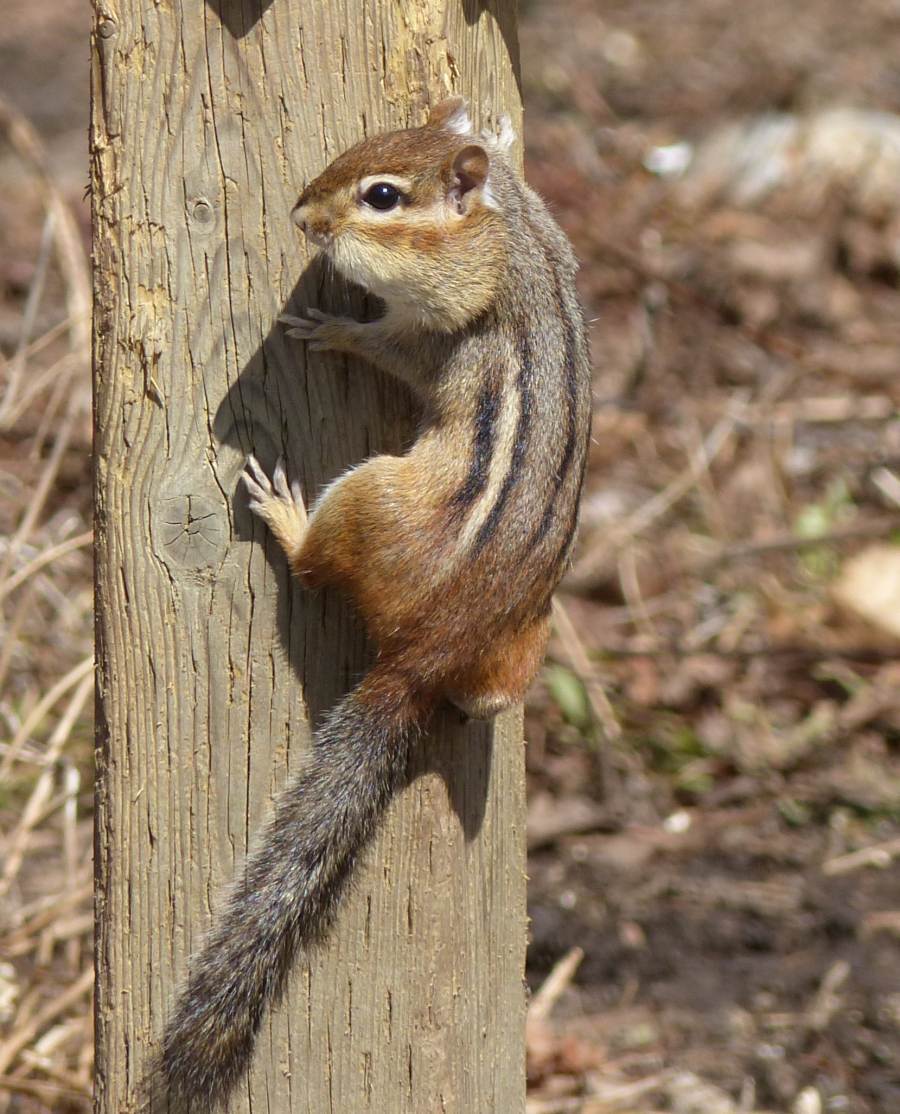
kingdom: Animalia
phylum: Chordata
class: Mammalia
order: Rodentia
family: Sciuridae
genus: Tamias
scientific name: Tamias striatus
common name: Eastern chipmunk
